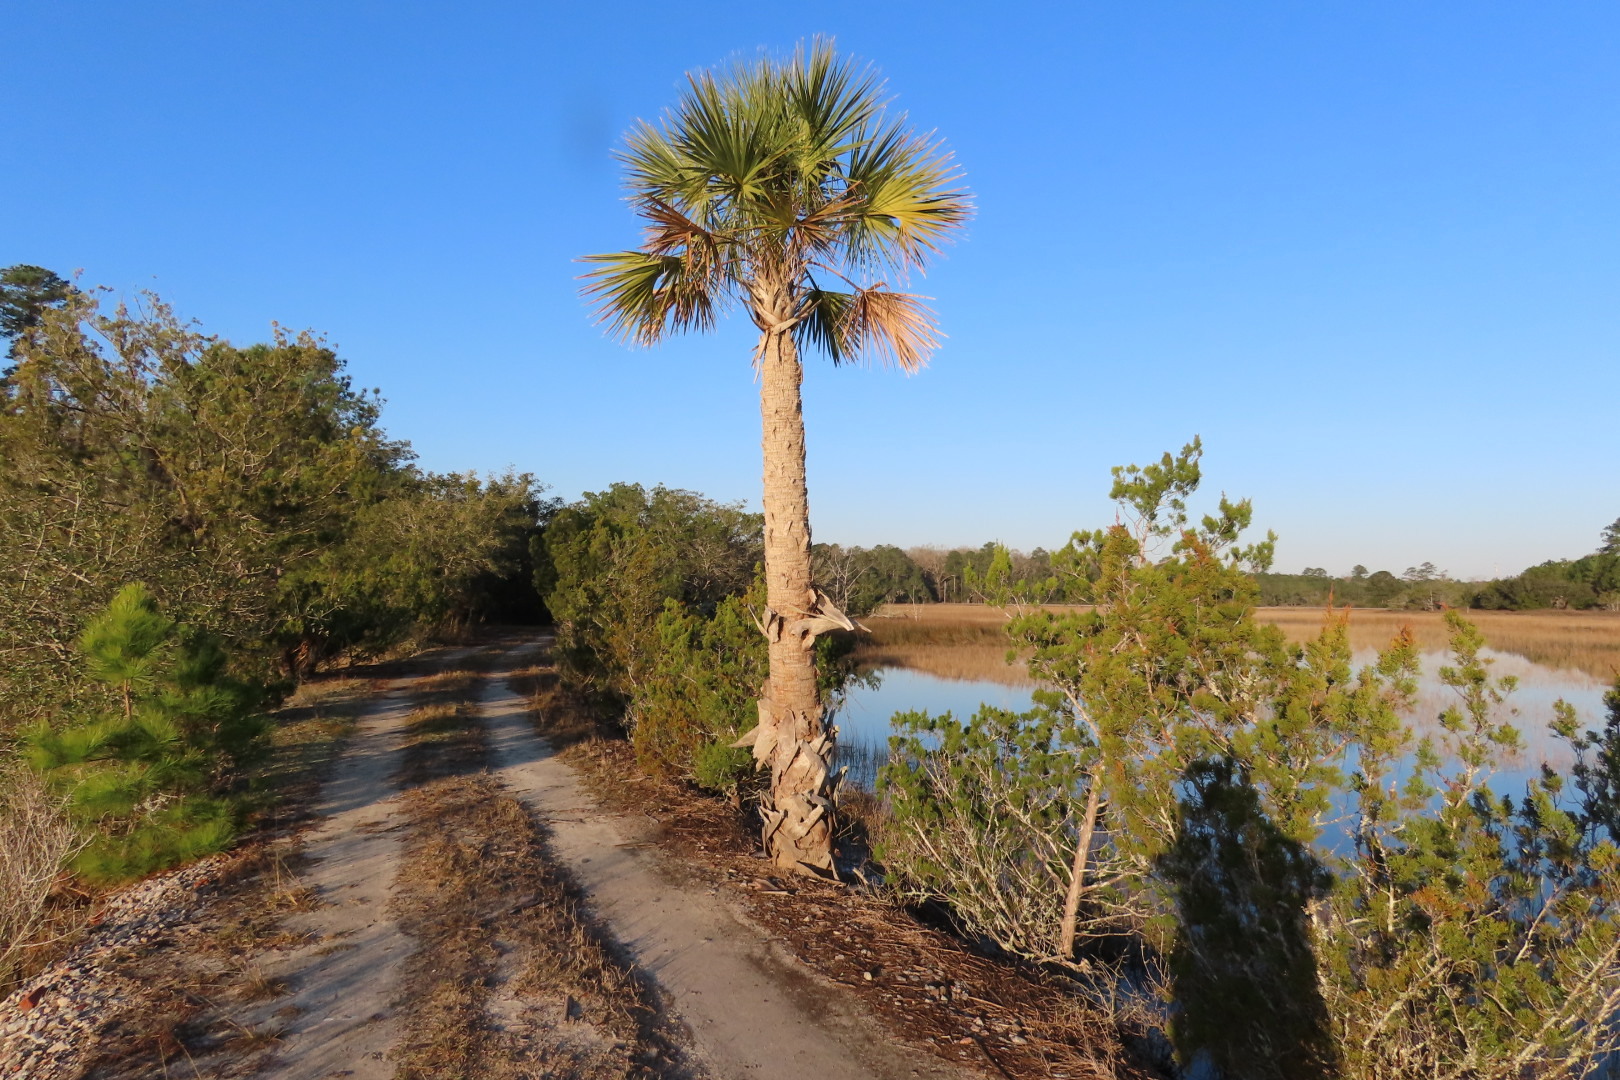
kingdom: Plantae
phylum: Tracheophyta
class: Liliopsida
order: Arecales
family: Arecaceae
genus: Sabal
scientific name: Sabal palmetto
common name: Blue palmetto
